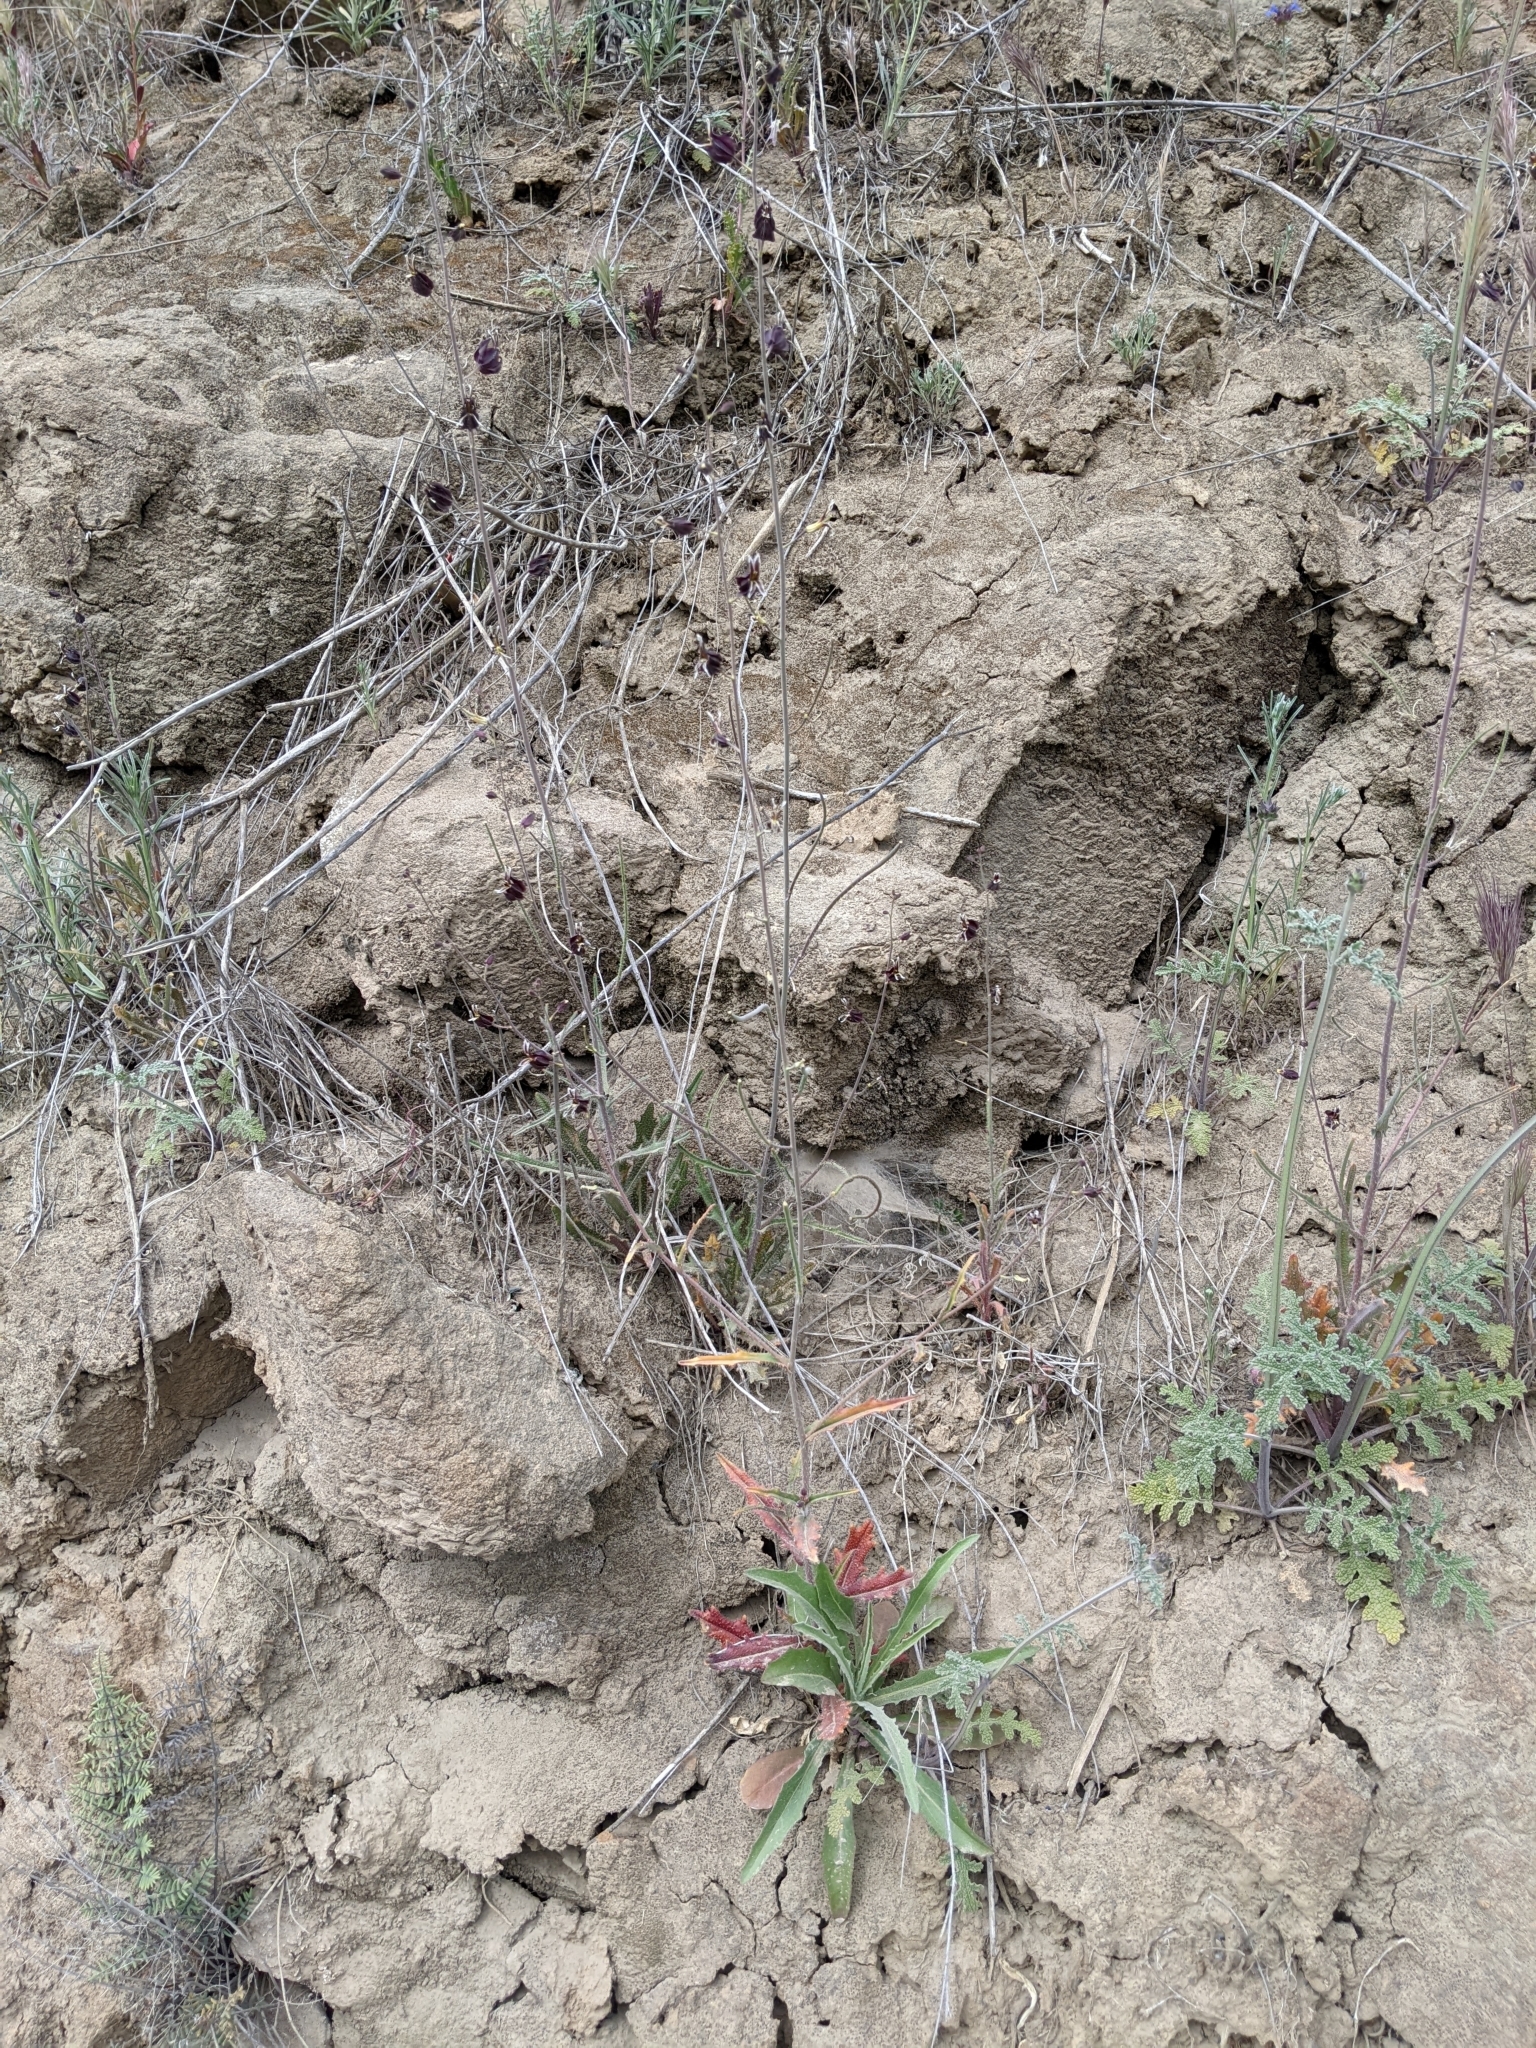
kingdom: Plantae
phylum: Tracheophyta
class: Magnoliopsida
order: Brassicales
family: Brassicaceae
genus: Streptanthus
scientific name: Streptanthus glandulosus
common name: Jewel-flower
